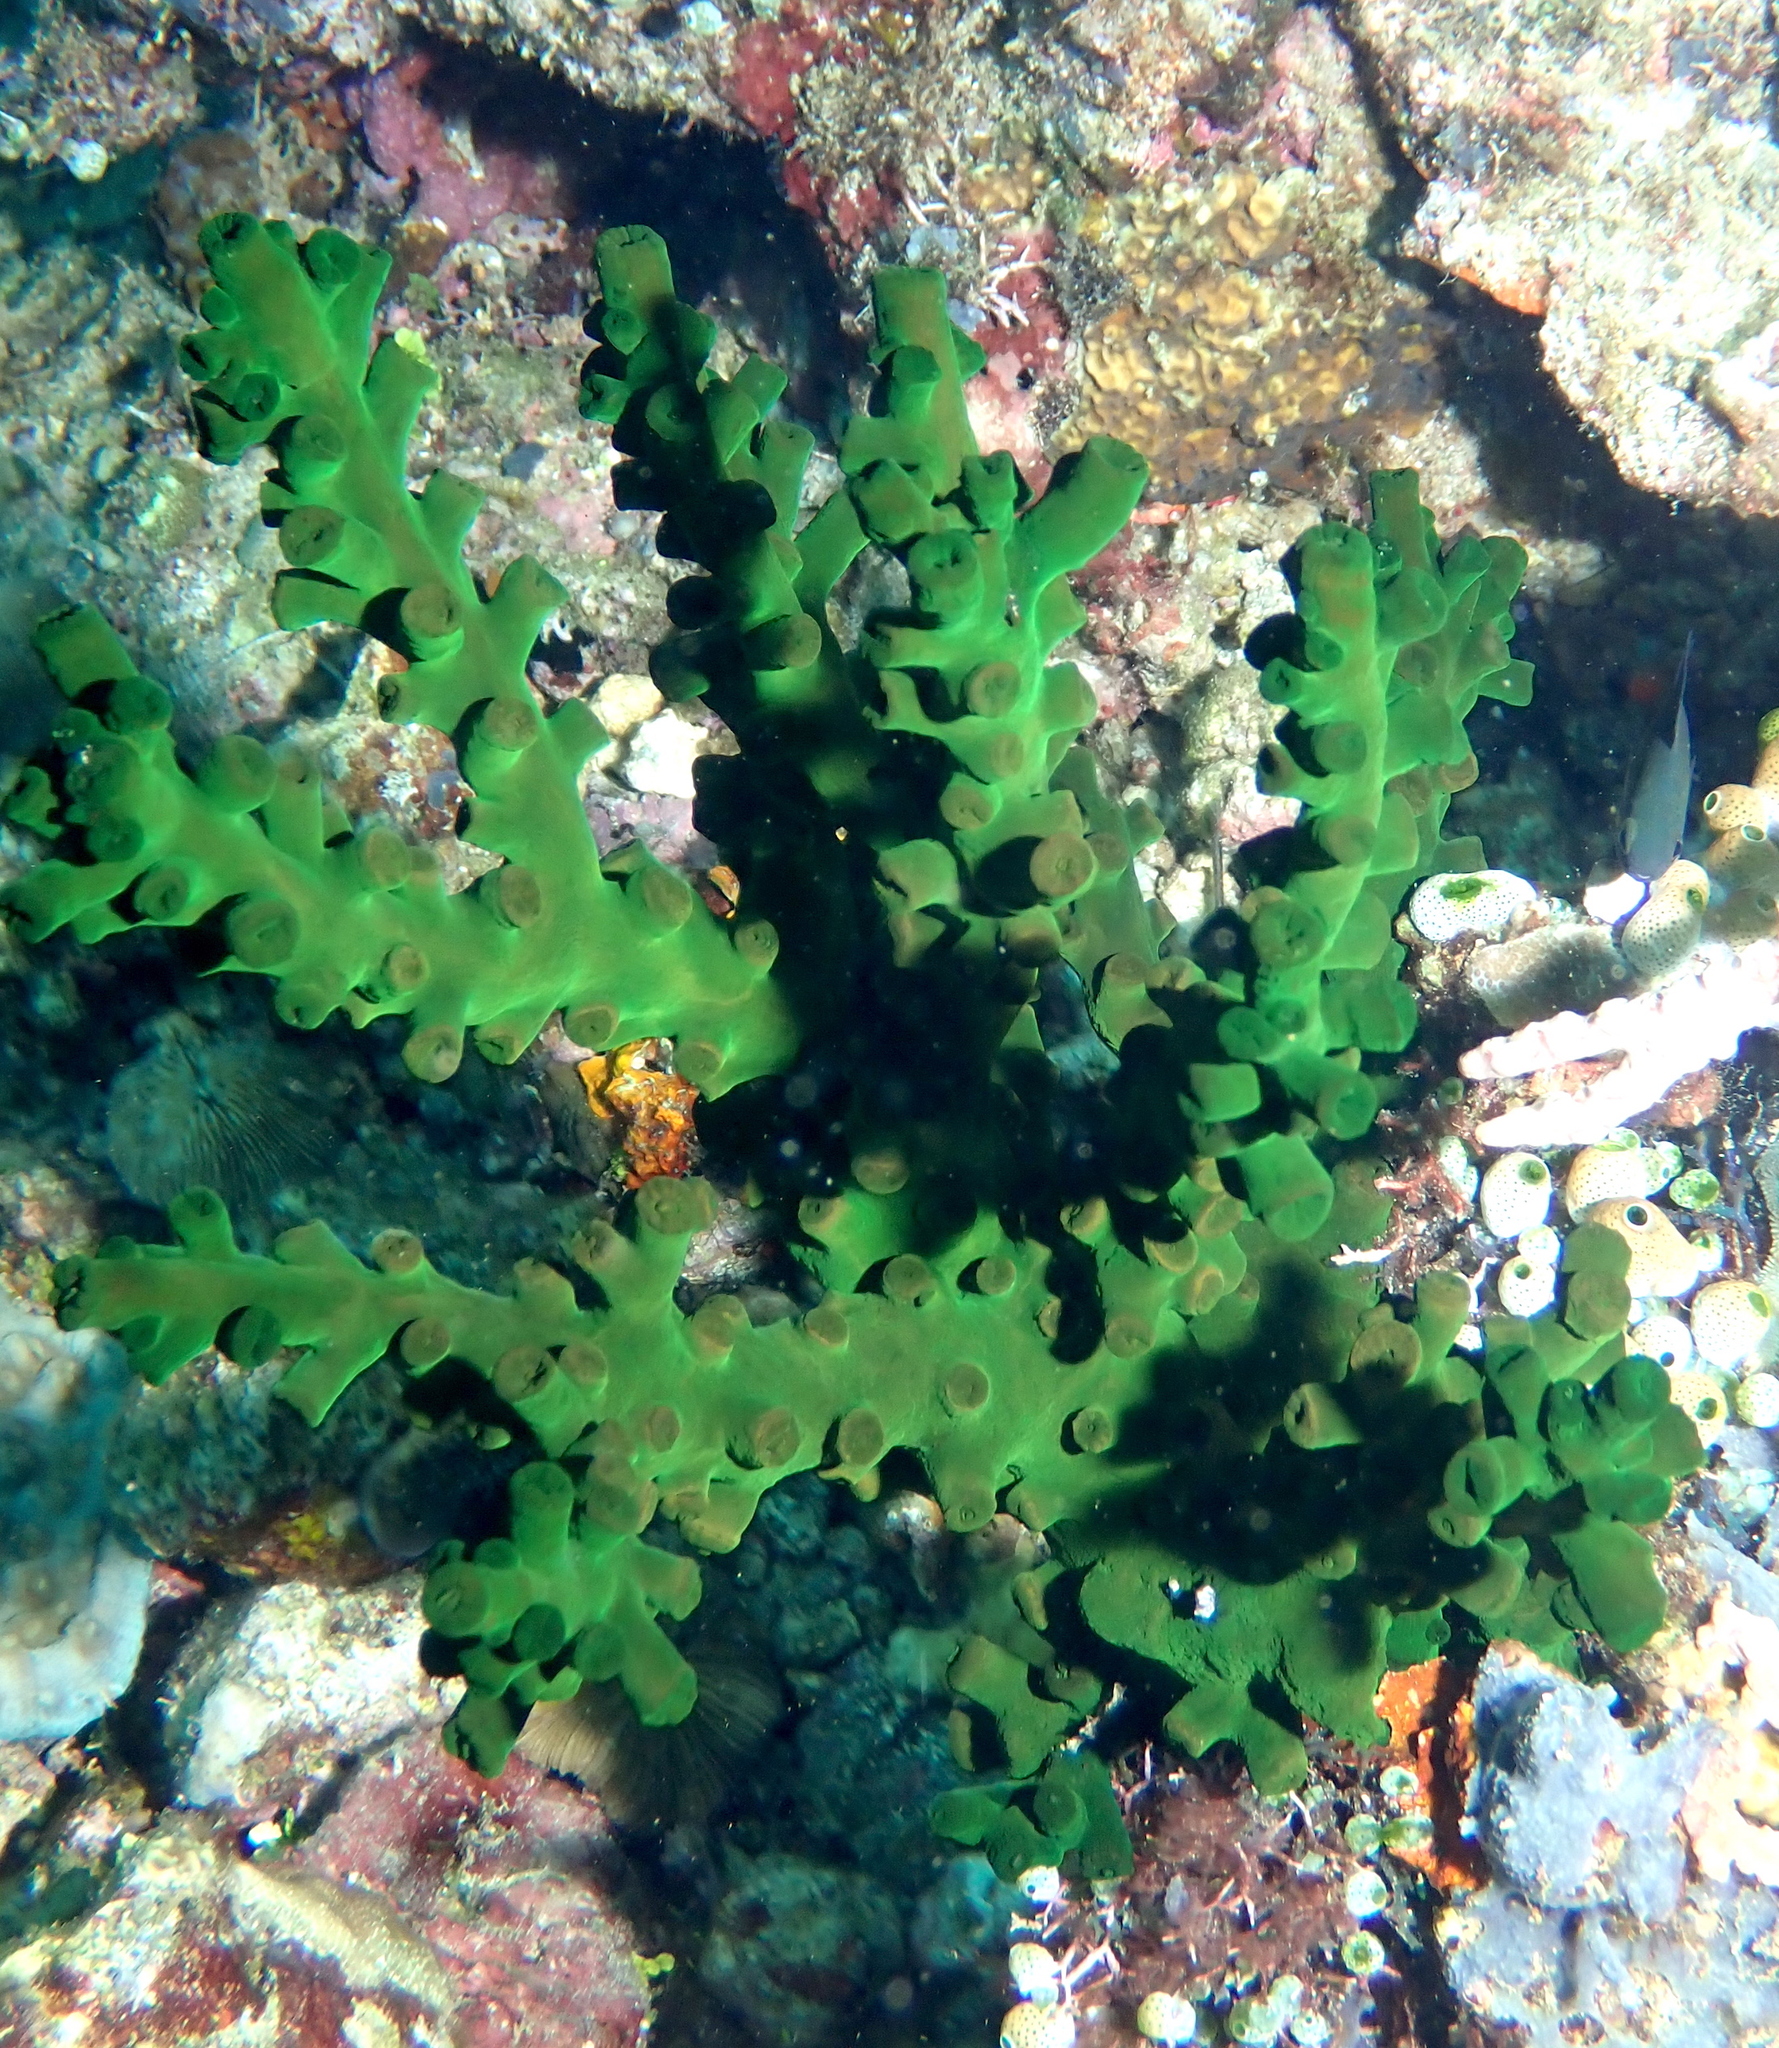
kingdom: Animalia
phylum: Cnidaria
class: Anthozoa
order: Scleractinia
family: Dendrophylliidae
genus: Tubastraea
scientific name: Tubastraea micranthus
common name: Black sun coral
